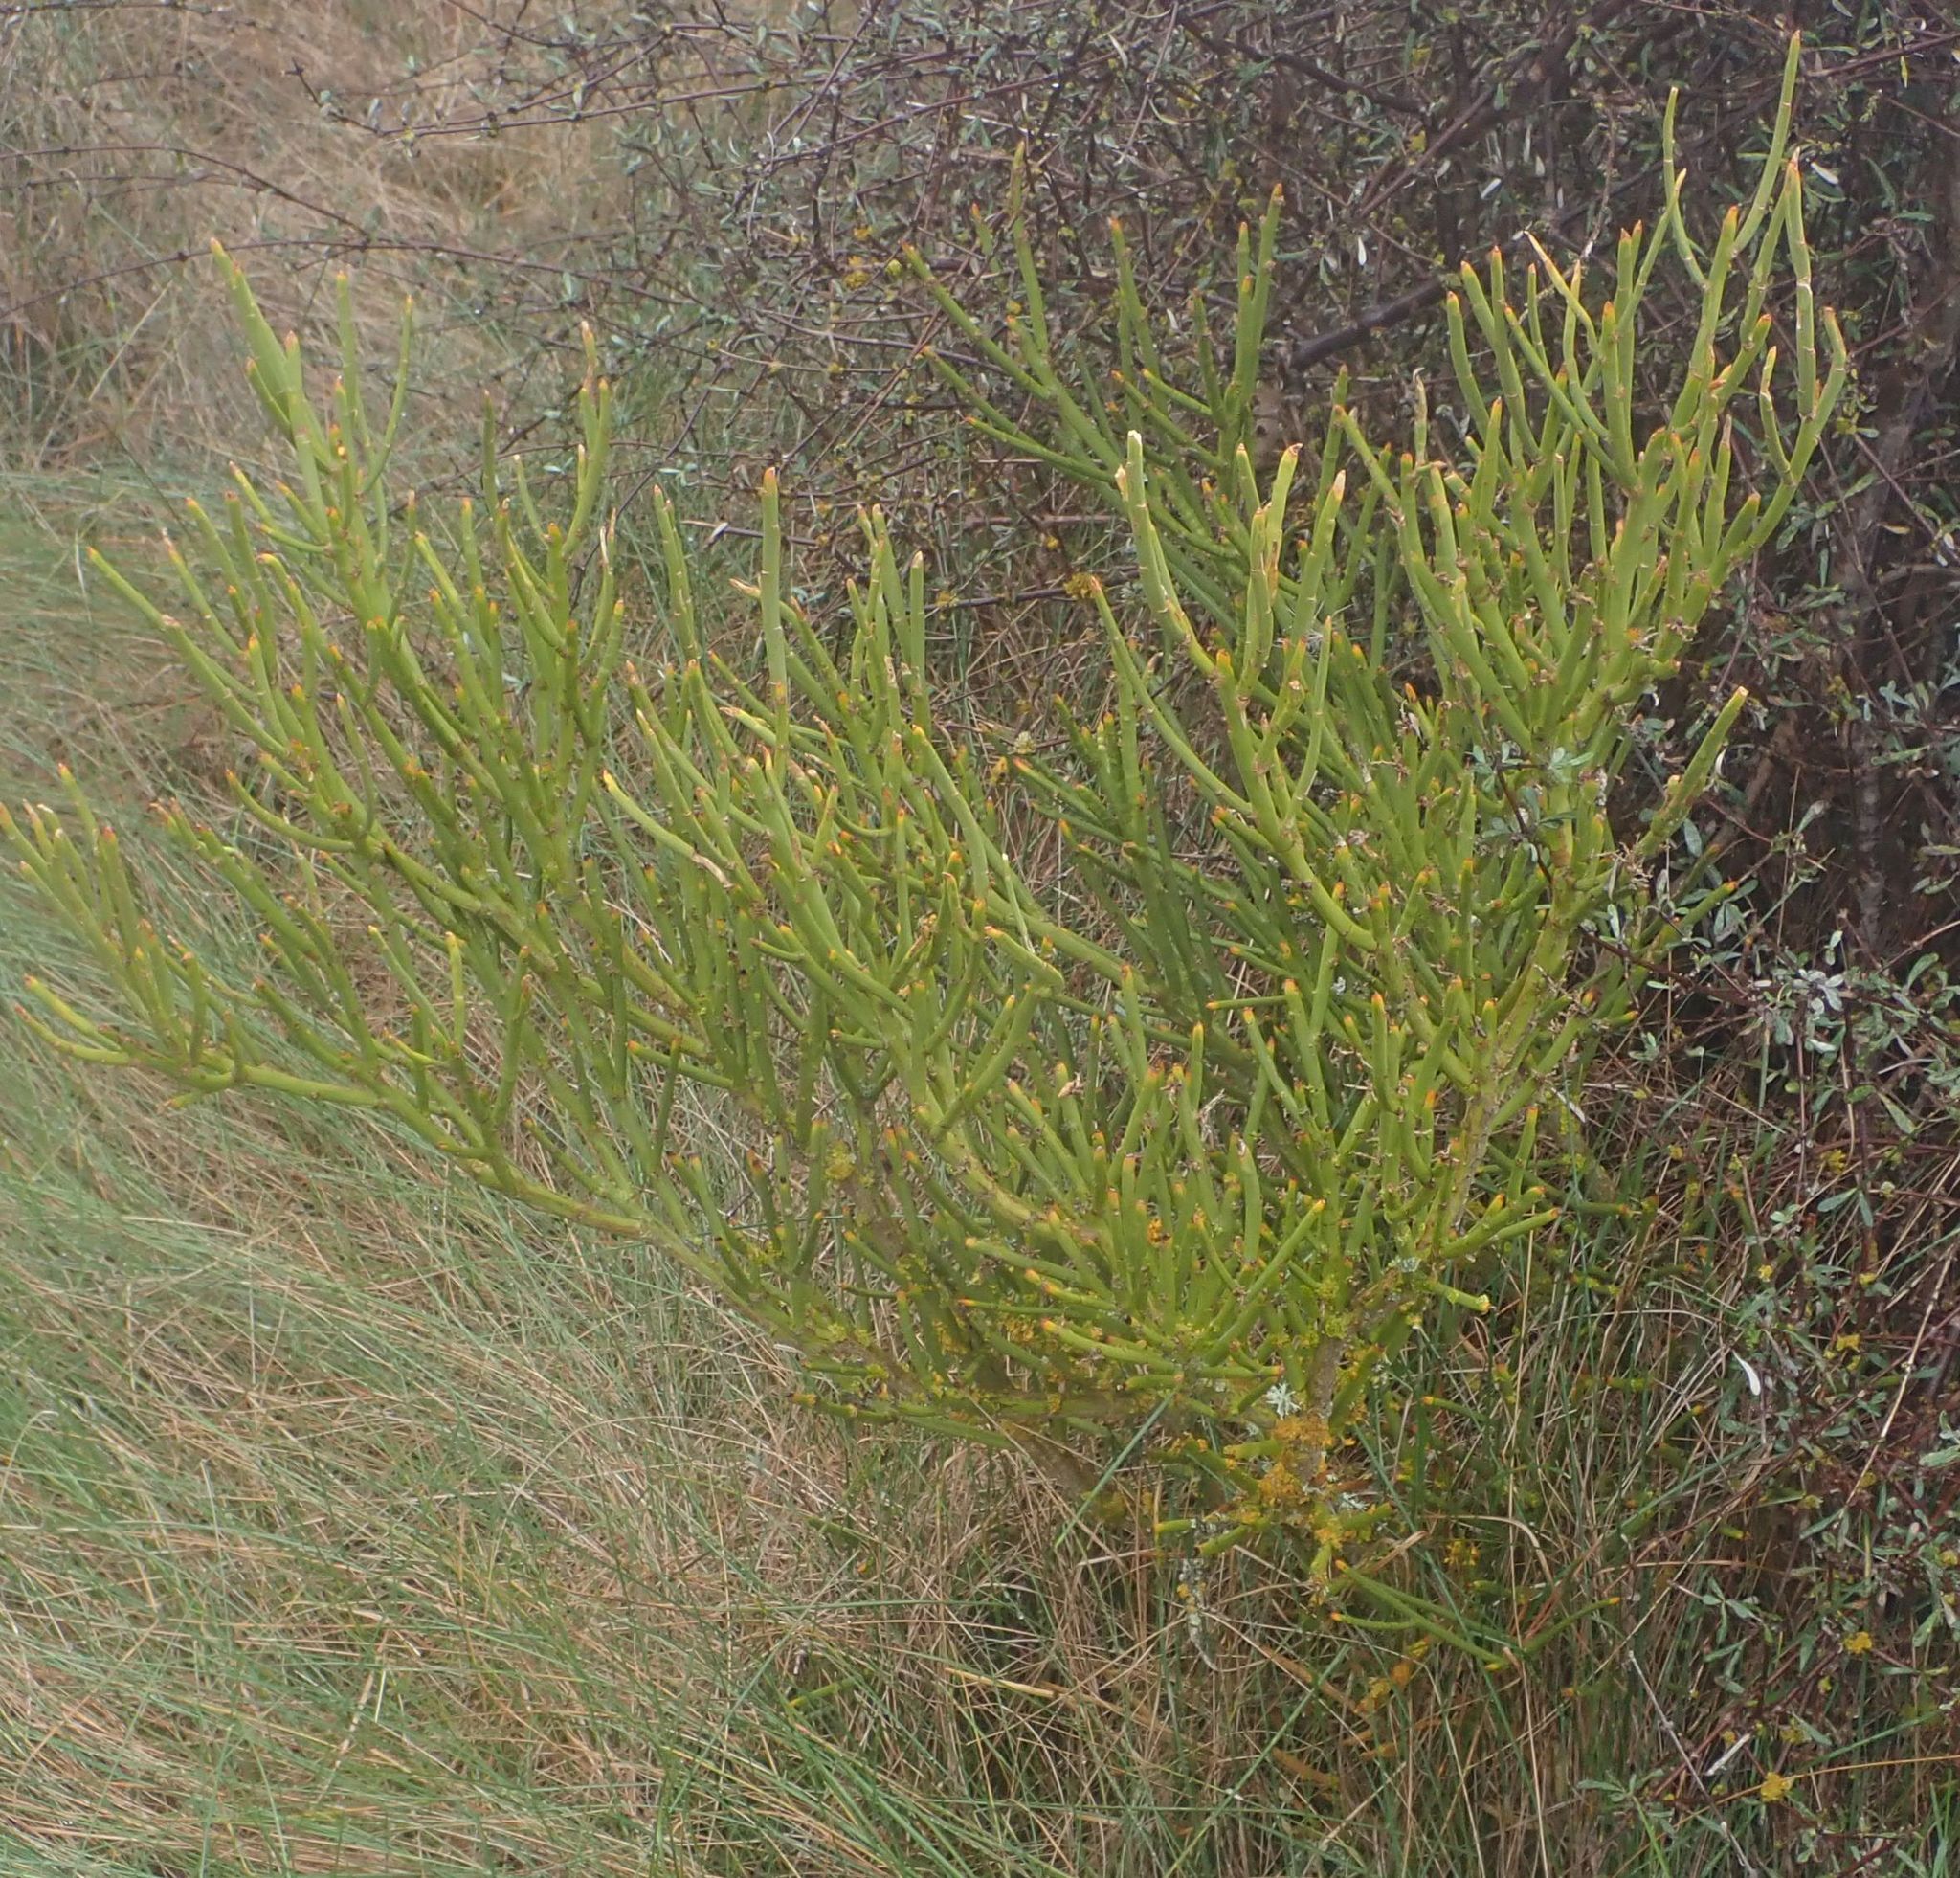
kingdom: Plantae
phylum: Tracheophyta
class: Magnoliopsida
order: Fabales
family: Fabaceae
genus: Carmichaelia
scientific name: Carmichaelia petriei
